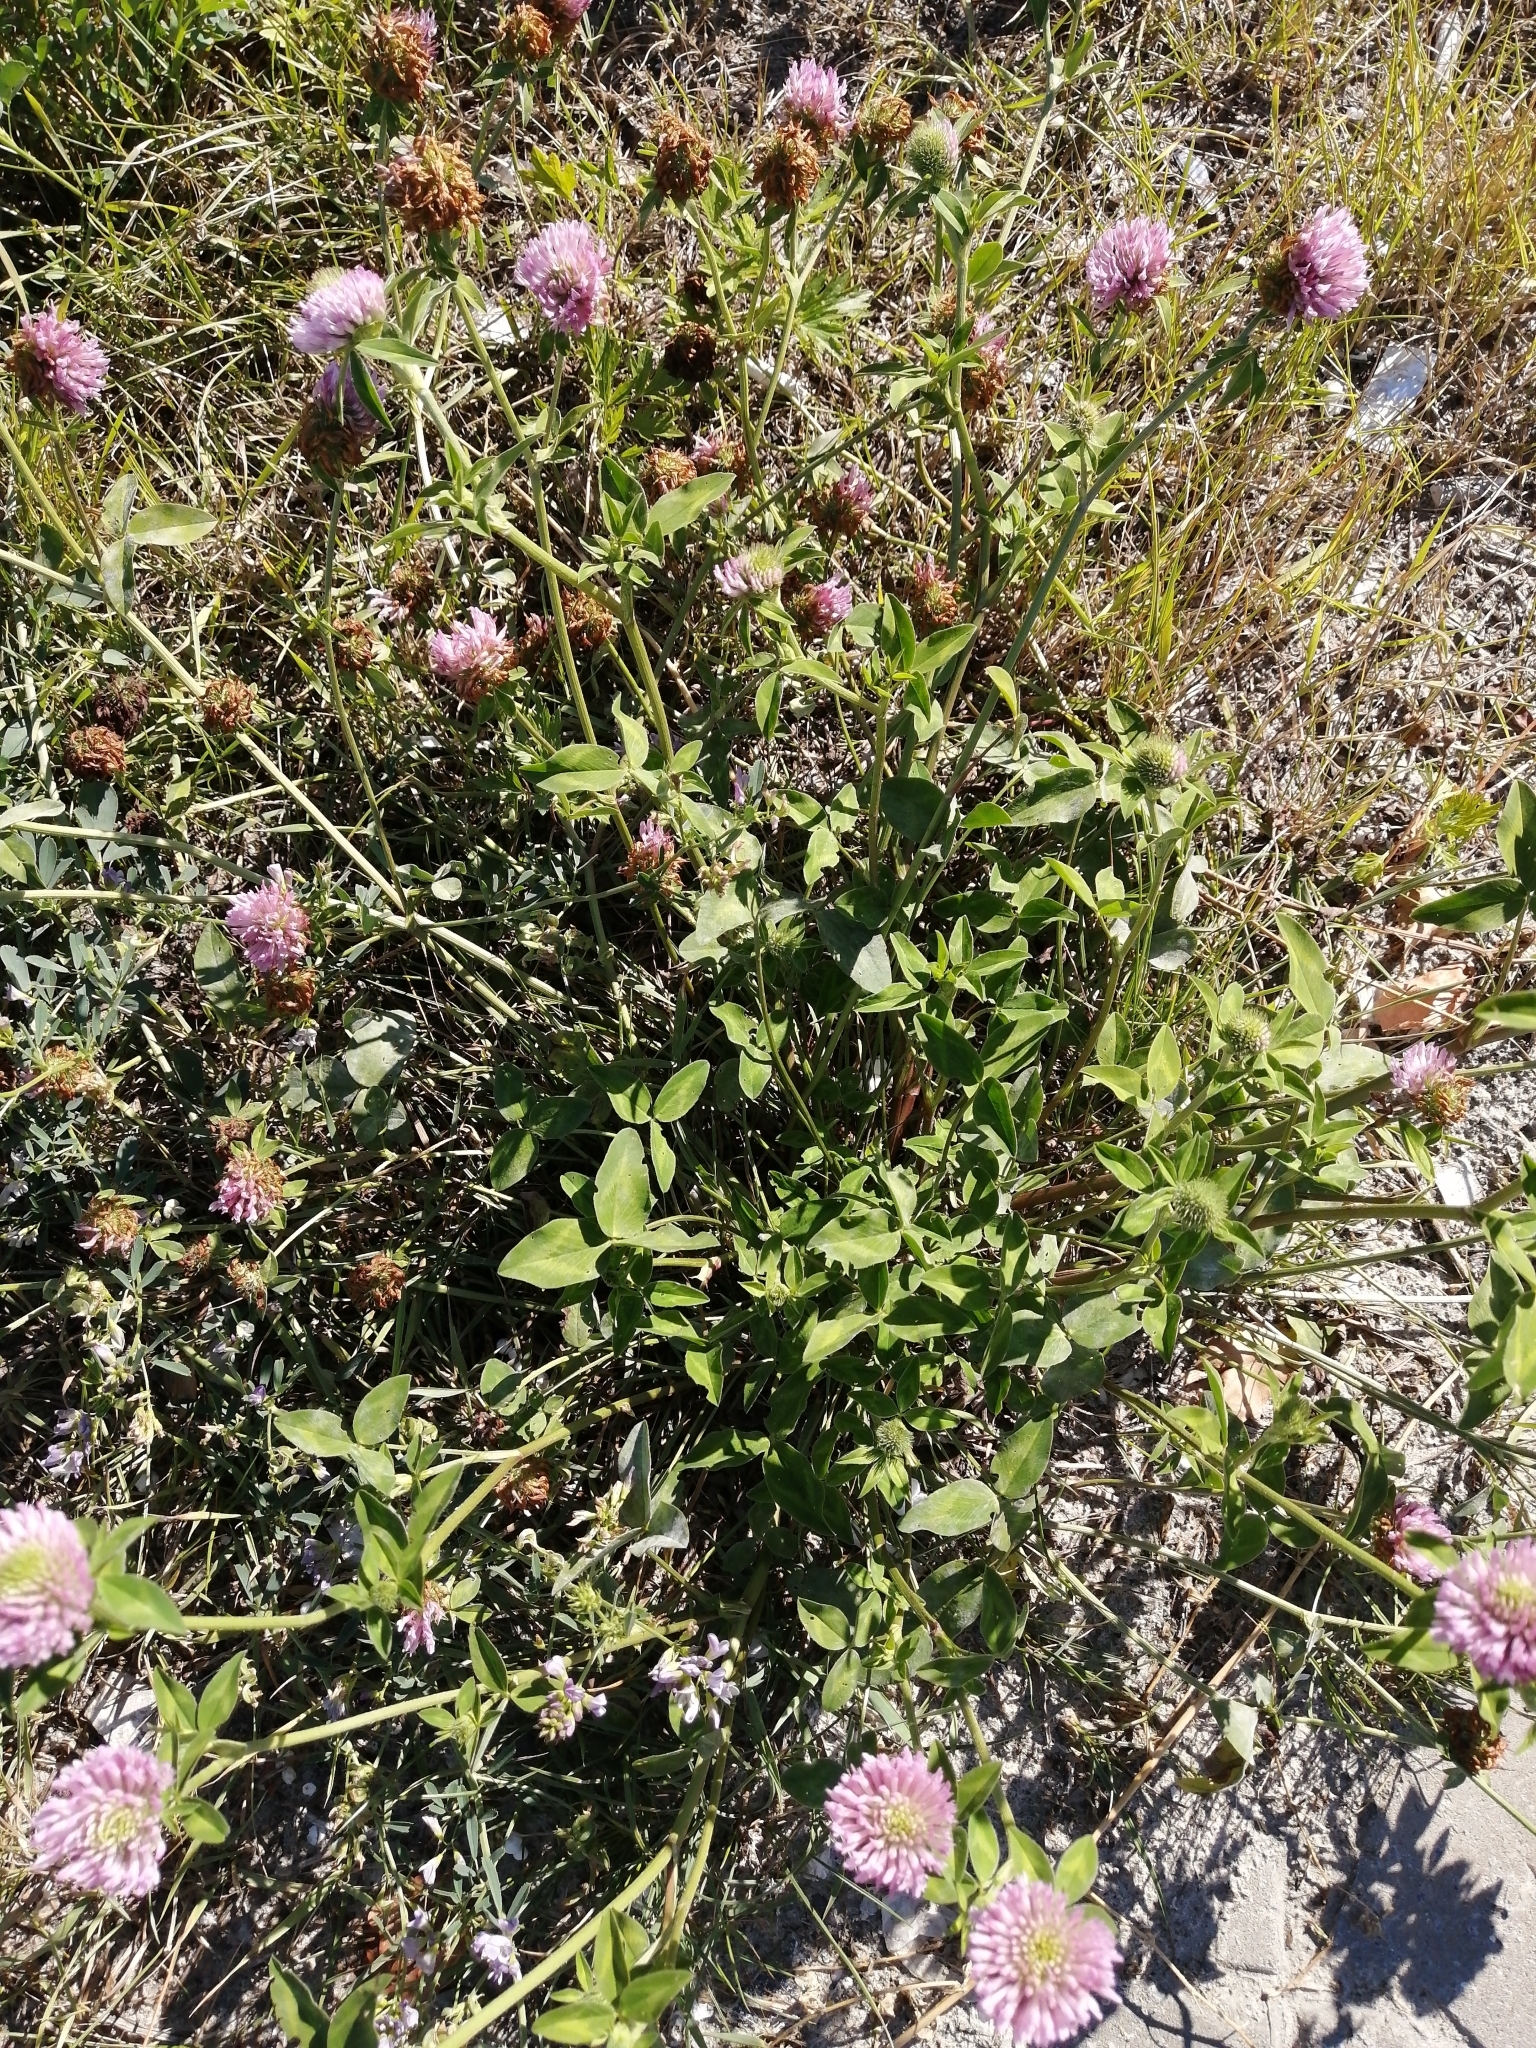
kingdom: Plantae
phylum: Tracheophyta
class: Magnoliopsida
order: Fabales
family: Fabaceae
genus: Trifolium
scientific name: Trifolium pratense
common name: Red clover
